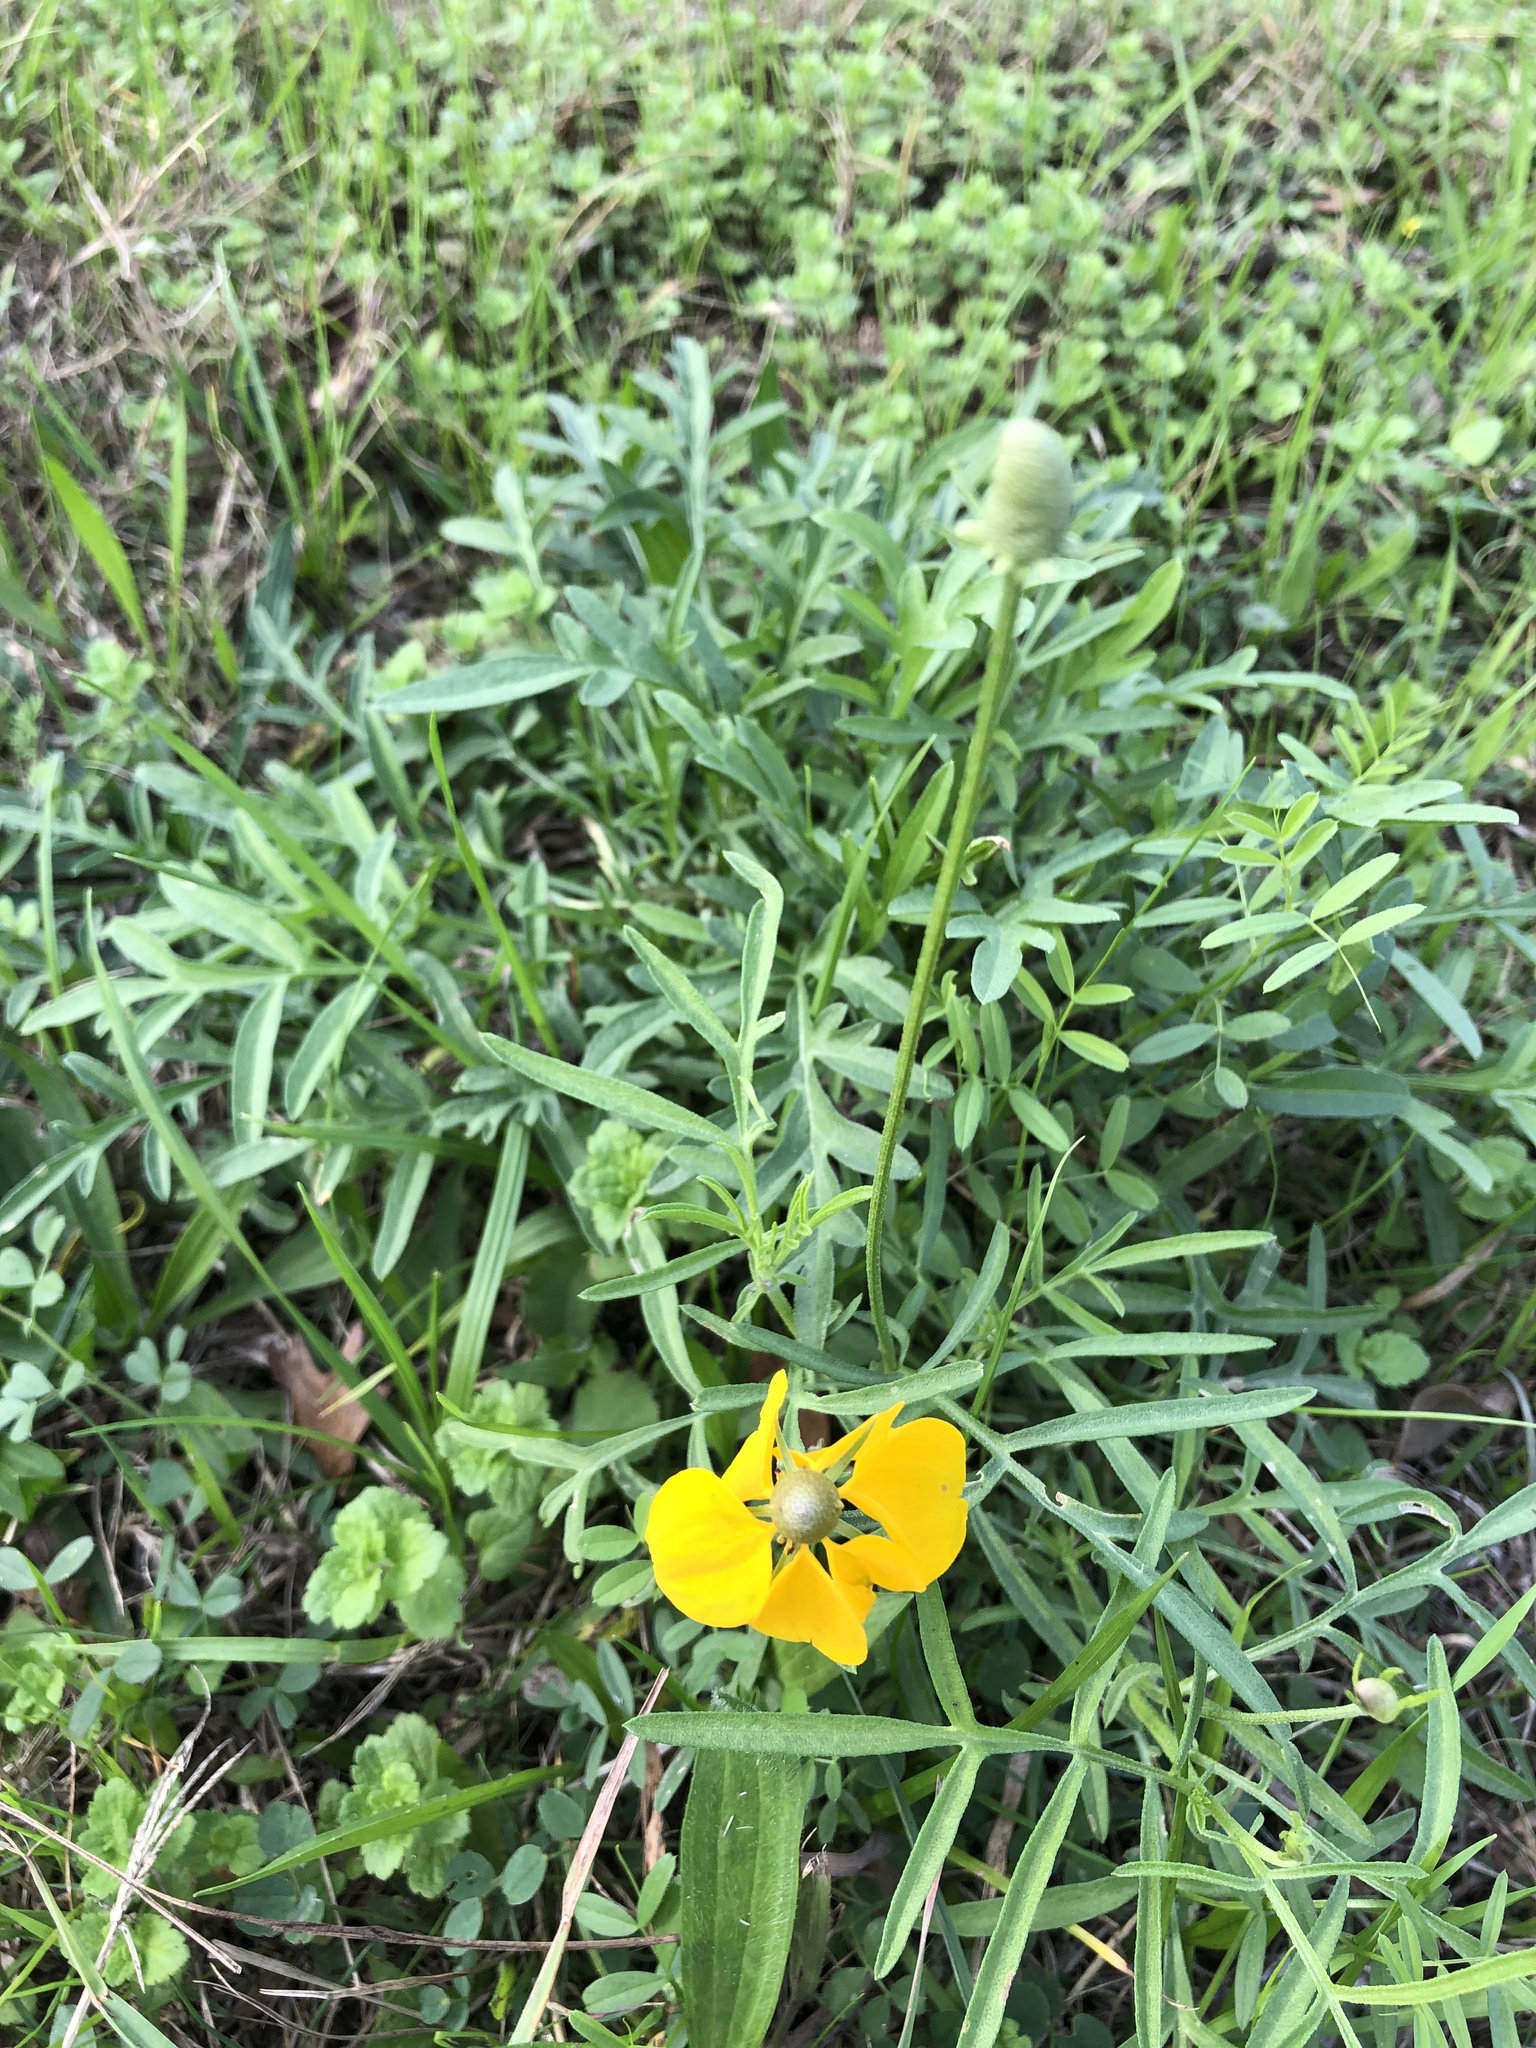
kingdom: Plantae
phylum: Tracheophyta
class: Magnoliopsida
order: Asterales
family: Asteraceae
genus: Ratibida
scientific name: Ratibida columnifera
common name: Prairie coneflower
